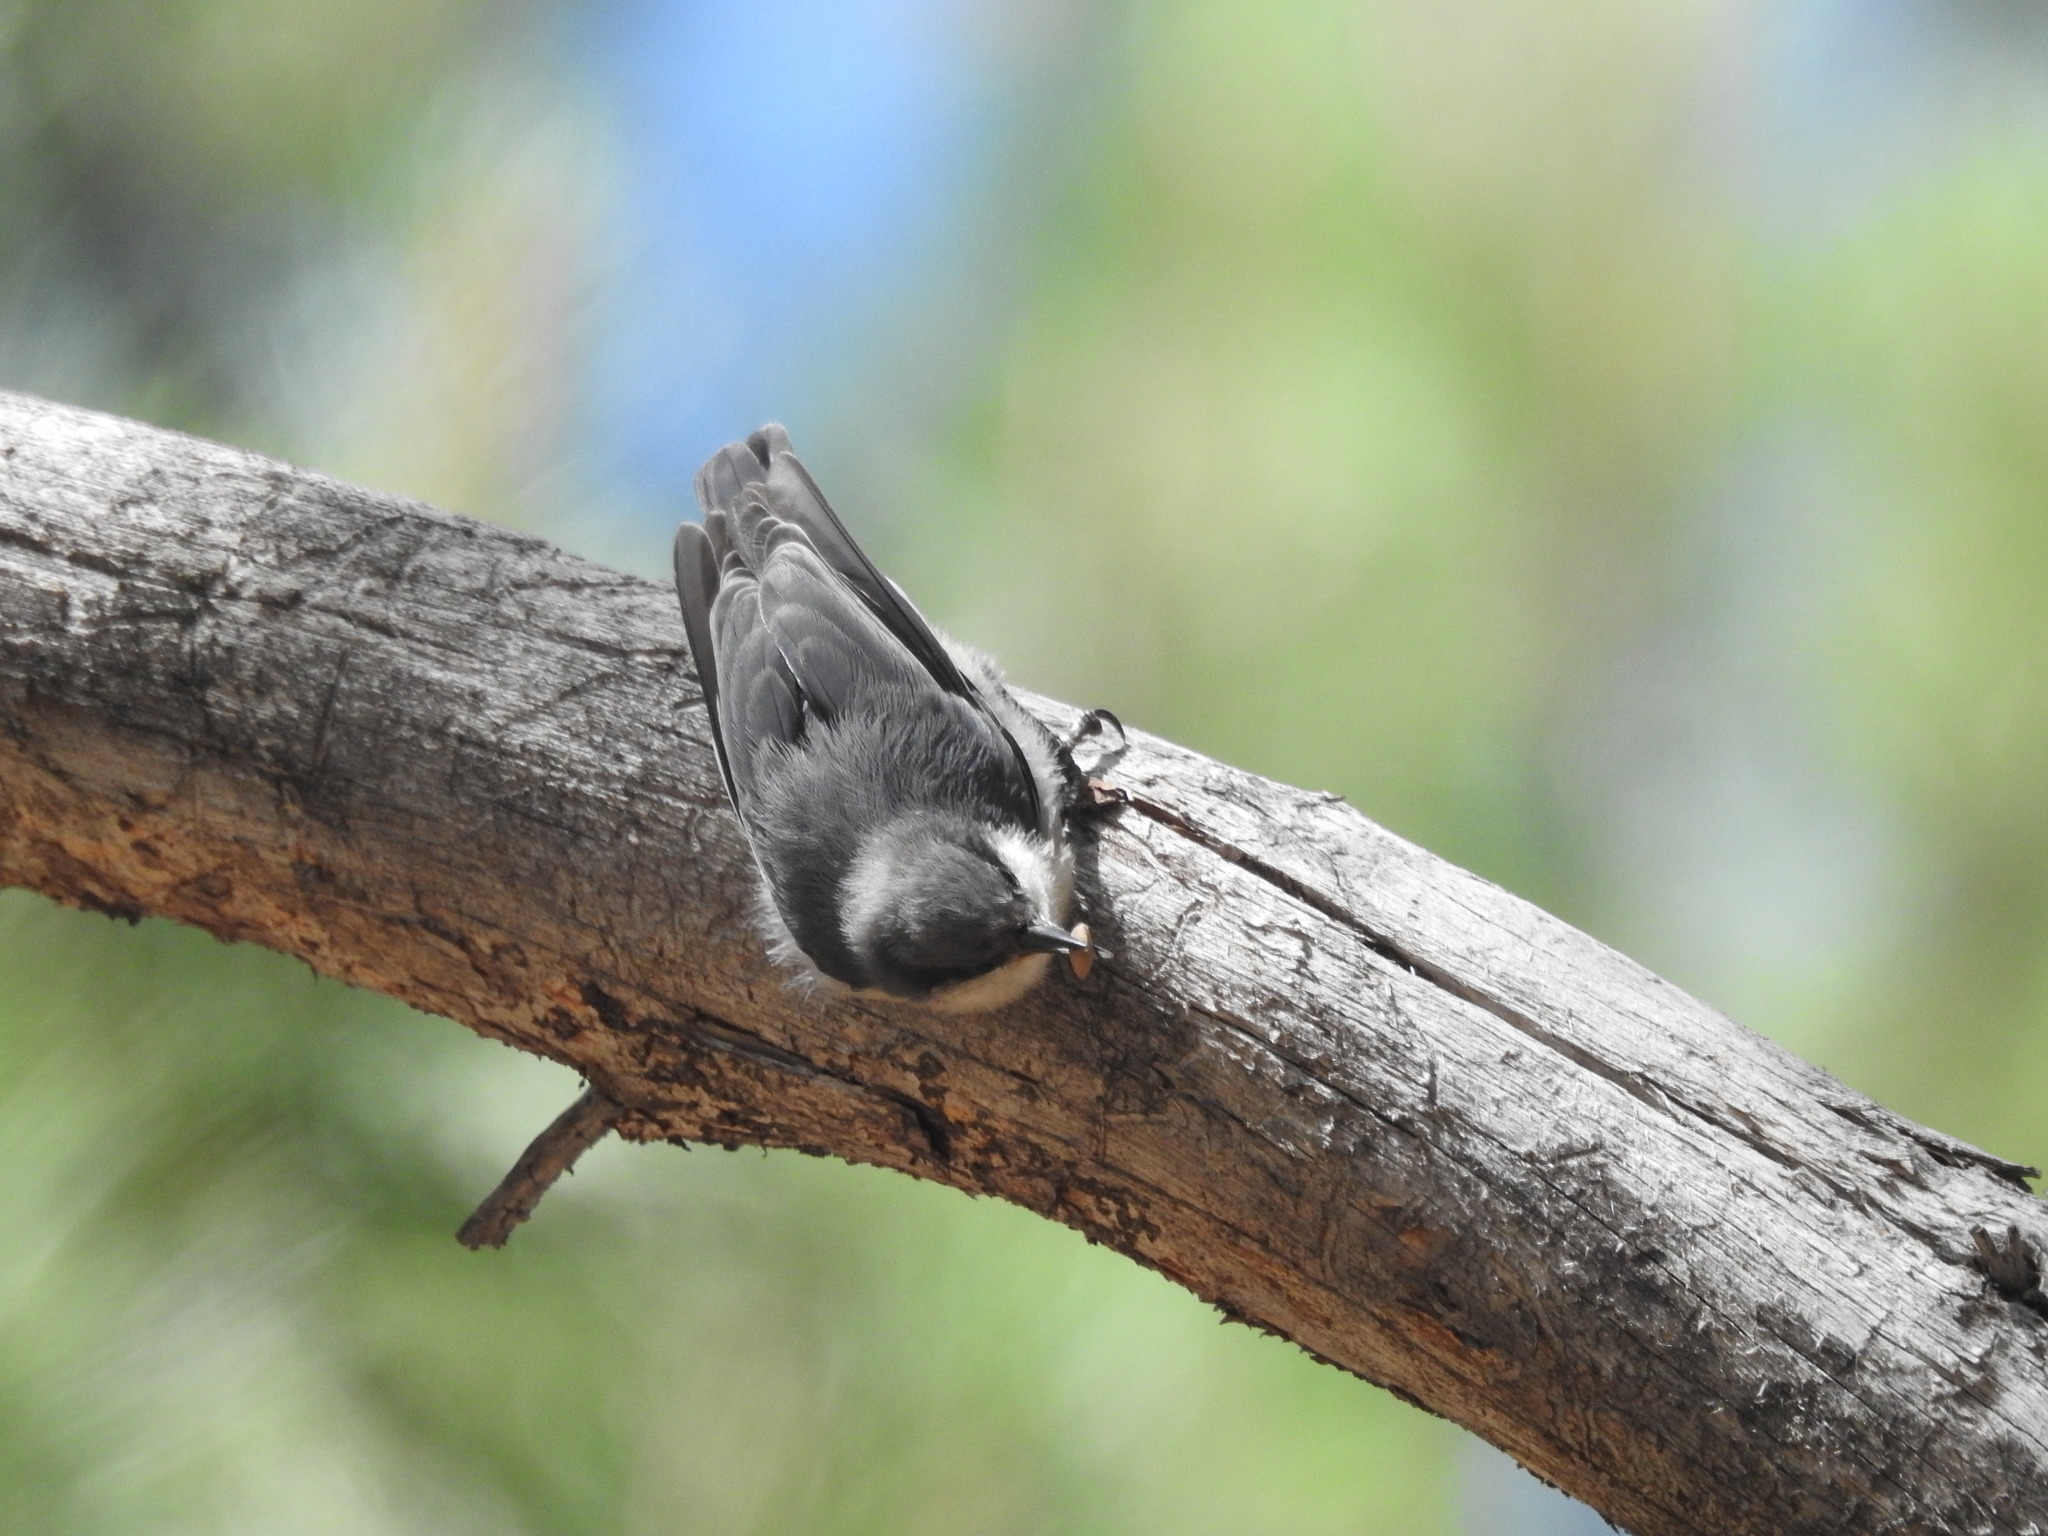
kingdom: Animalia
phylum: Chordata
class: Aves
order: Passeriformes
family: Sittidae
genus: Sitta
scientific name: Sitta pygmaea
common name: Pygmy nuthatch
